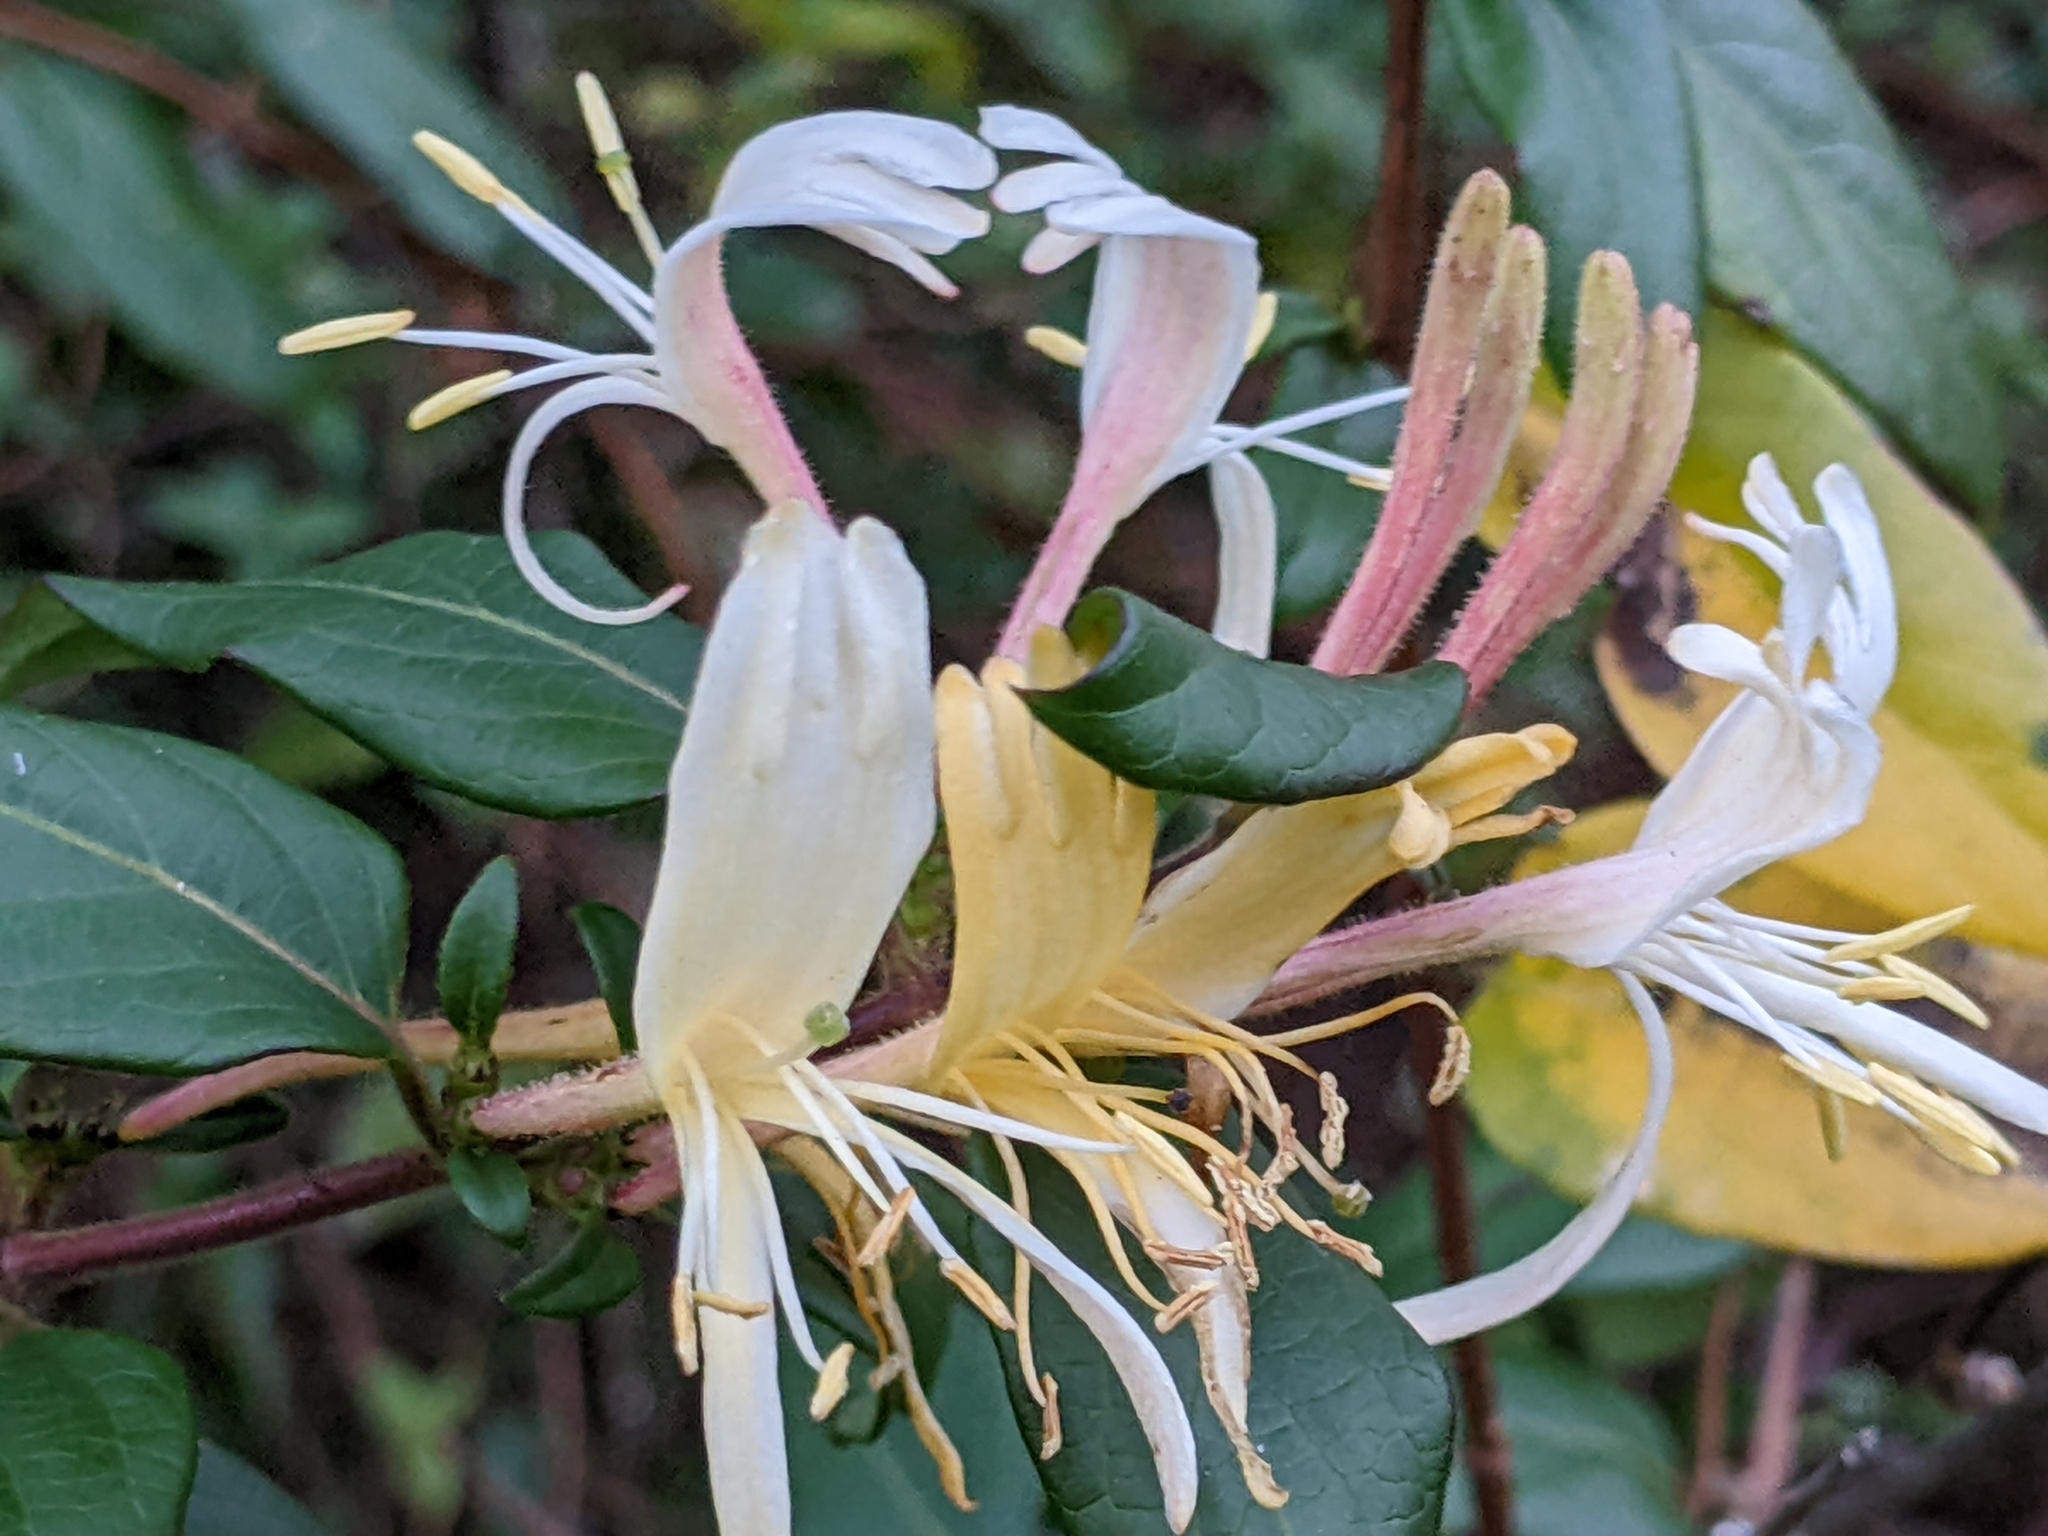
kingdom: Plantae
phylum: Tracheophyta
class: Magnoliopsida
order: Dipsacales
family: Caprifoliaceae
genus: Lonicera
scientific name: Lonicera japonica
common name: Japanese honeysuckle
